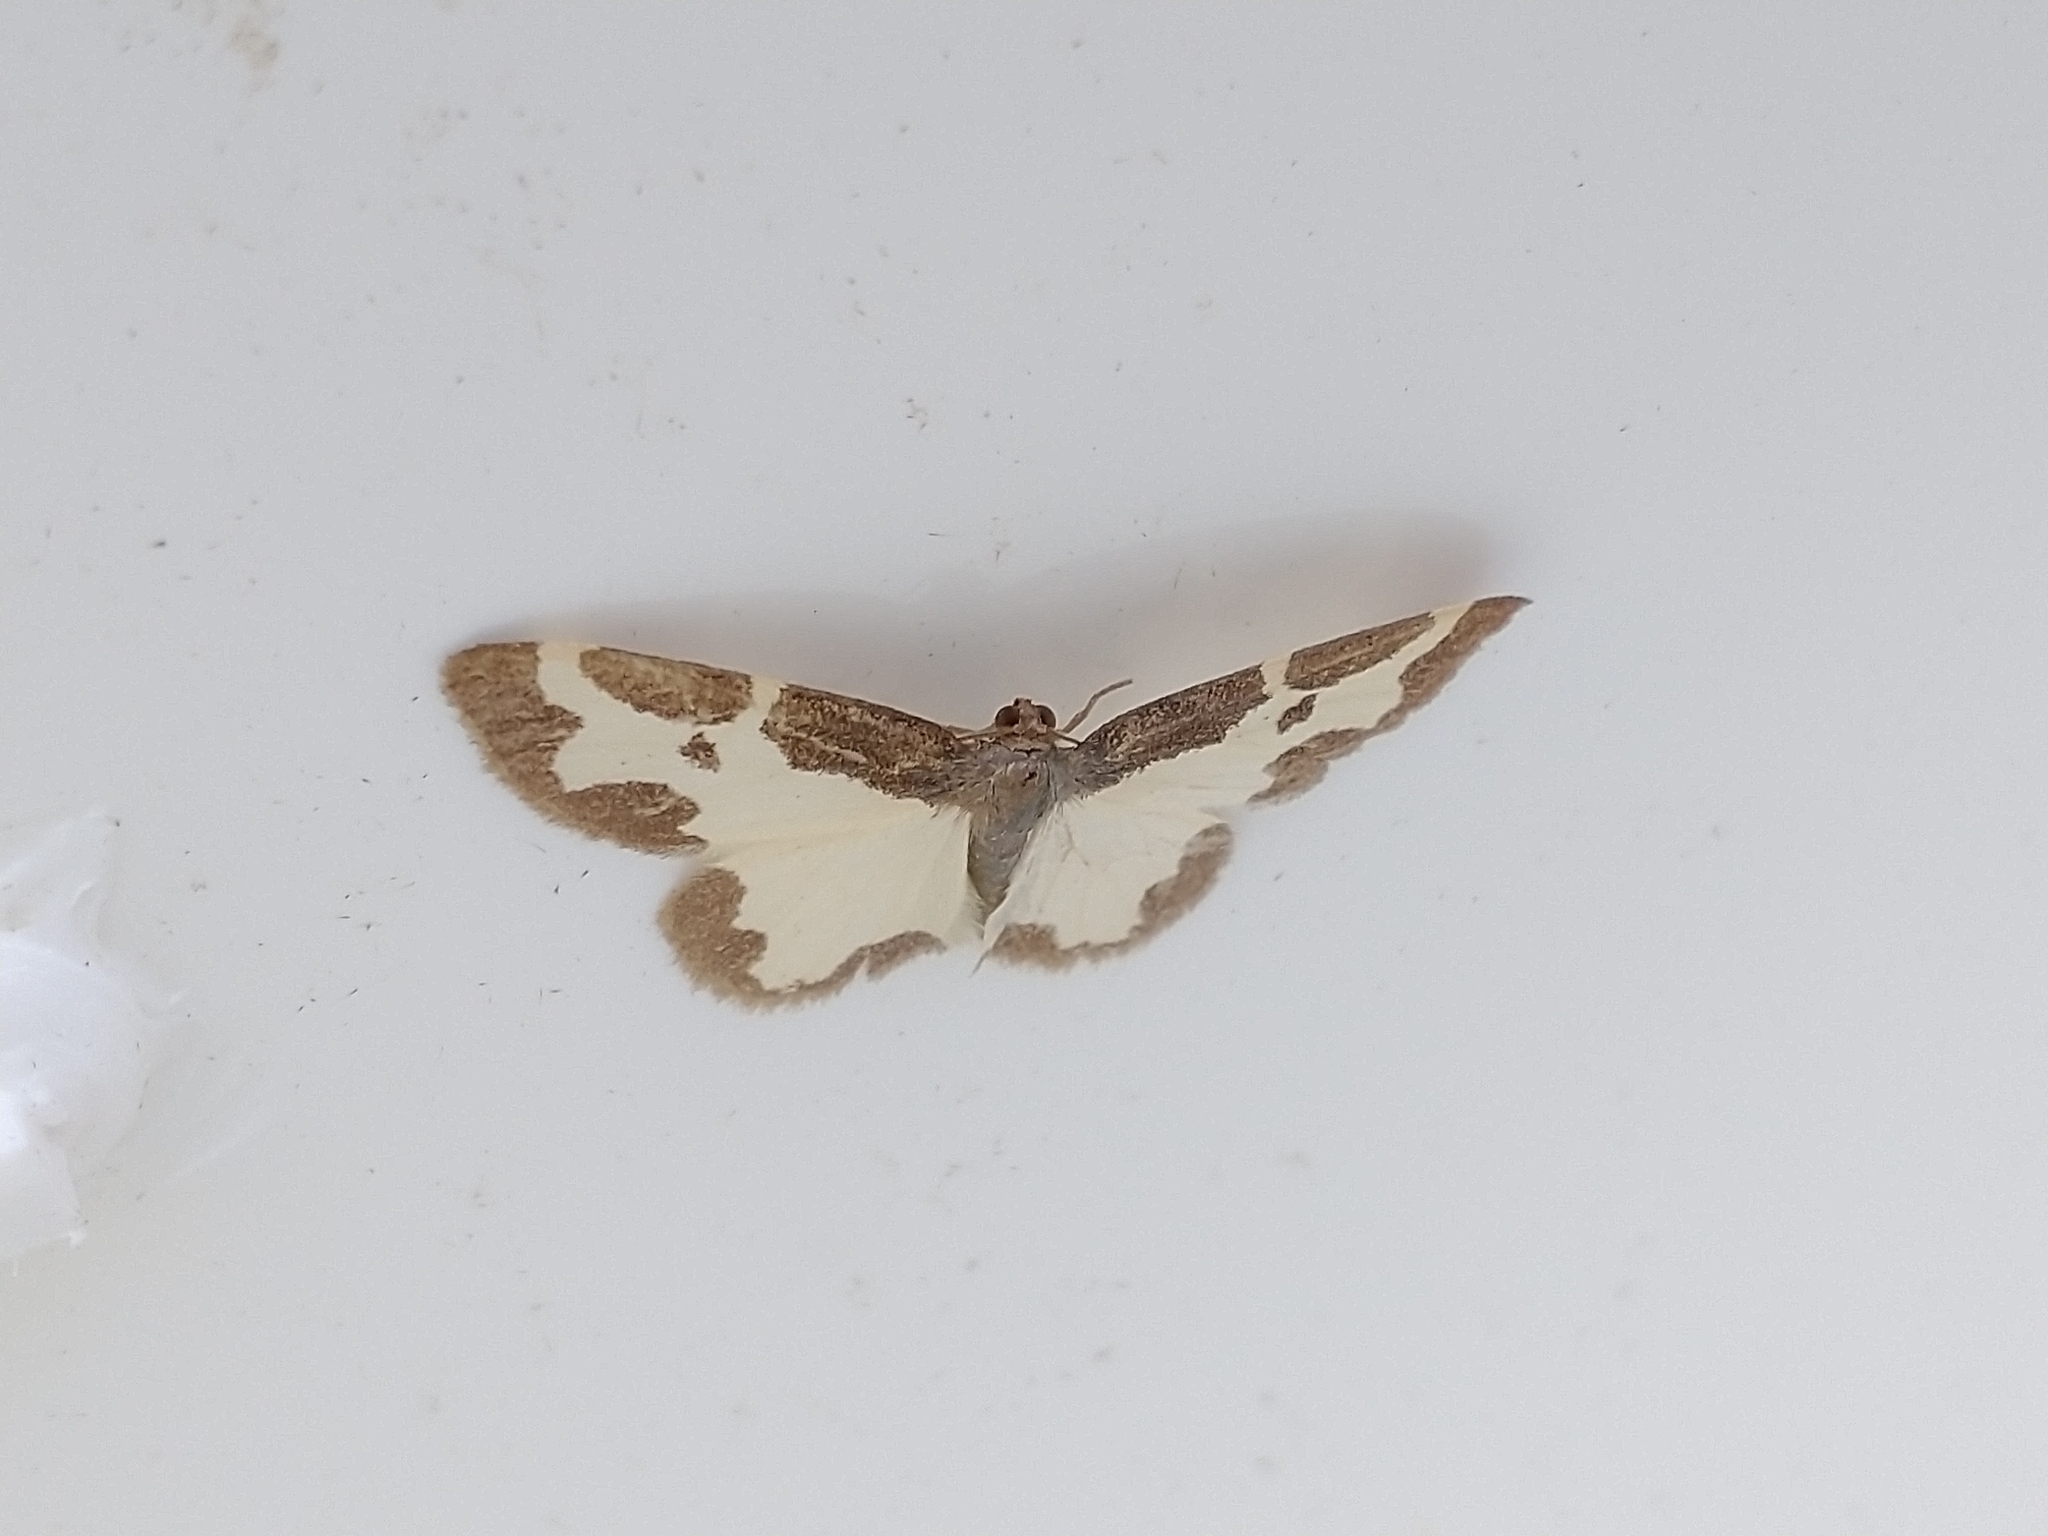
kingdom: Animalia
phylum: Arthropoda
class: Insecta
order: Lepidoptera
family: Geometridae
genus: Lomaspilis
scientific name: Lomaspilis marginata
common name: Clouded border
